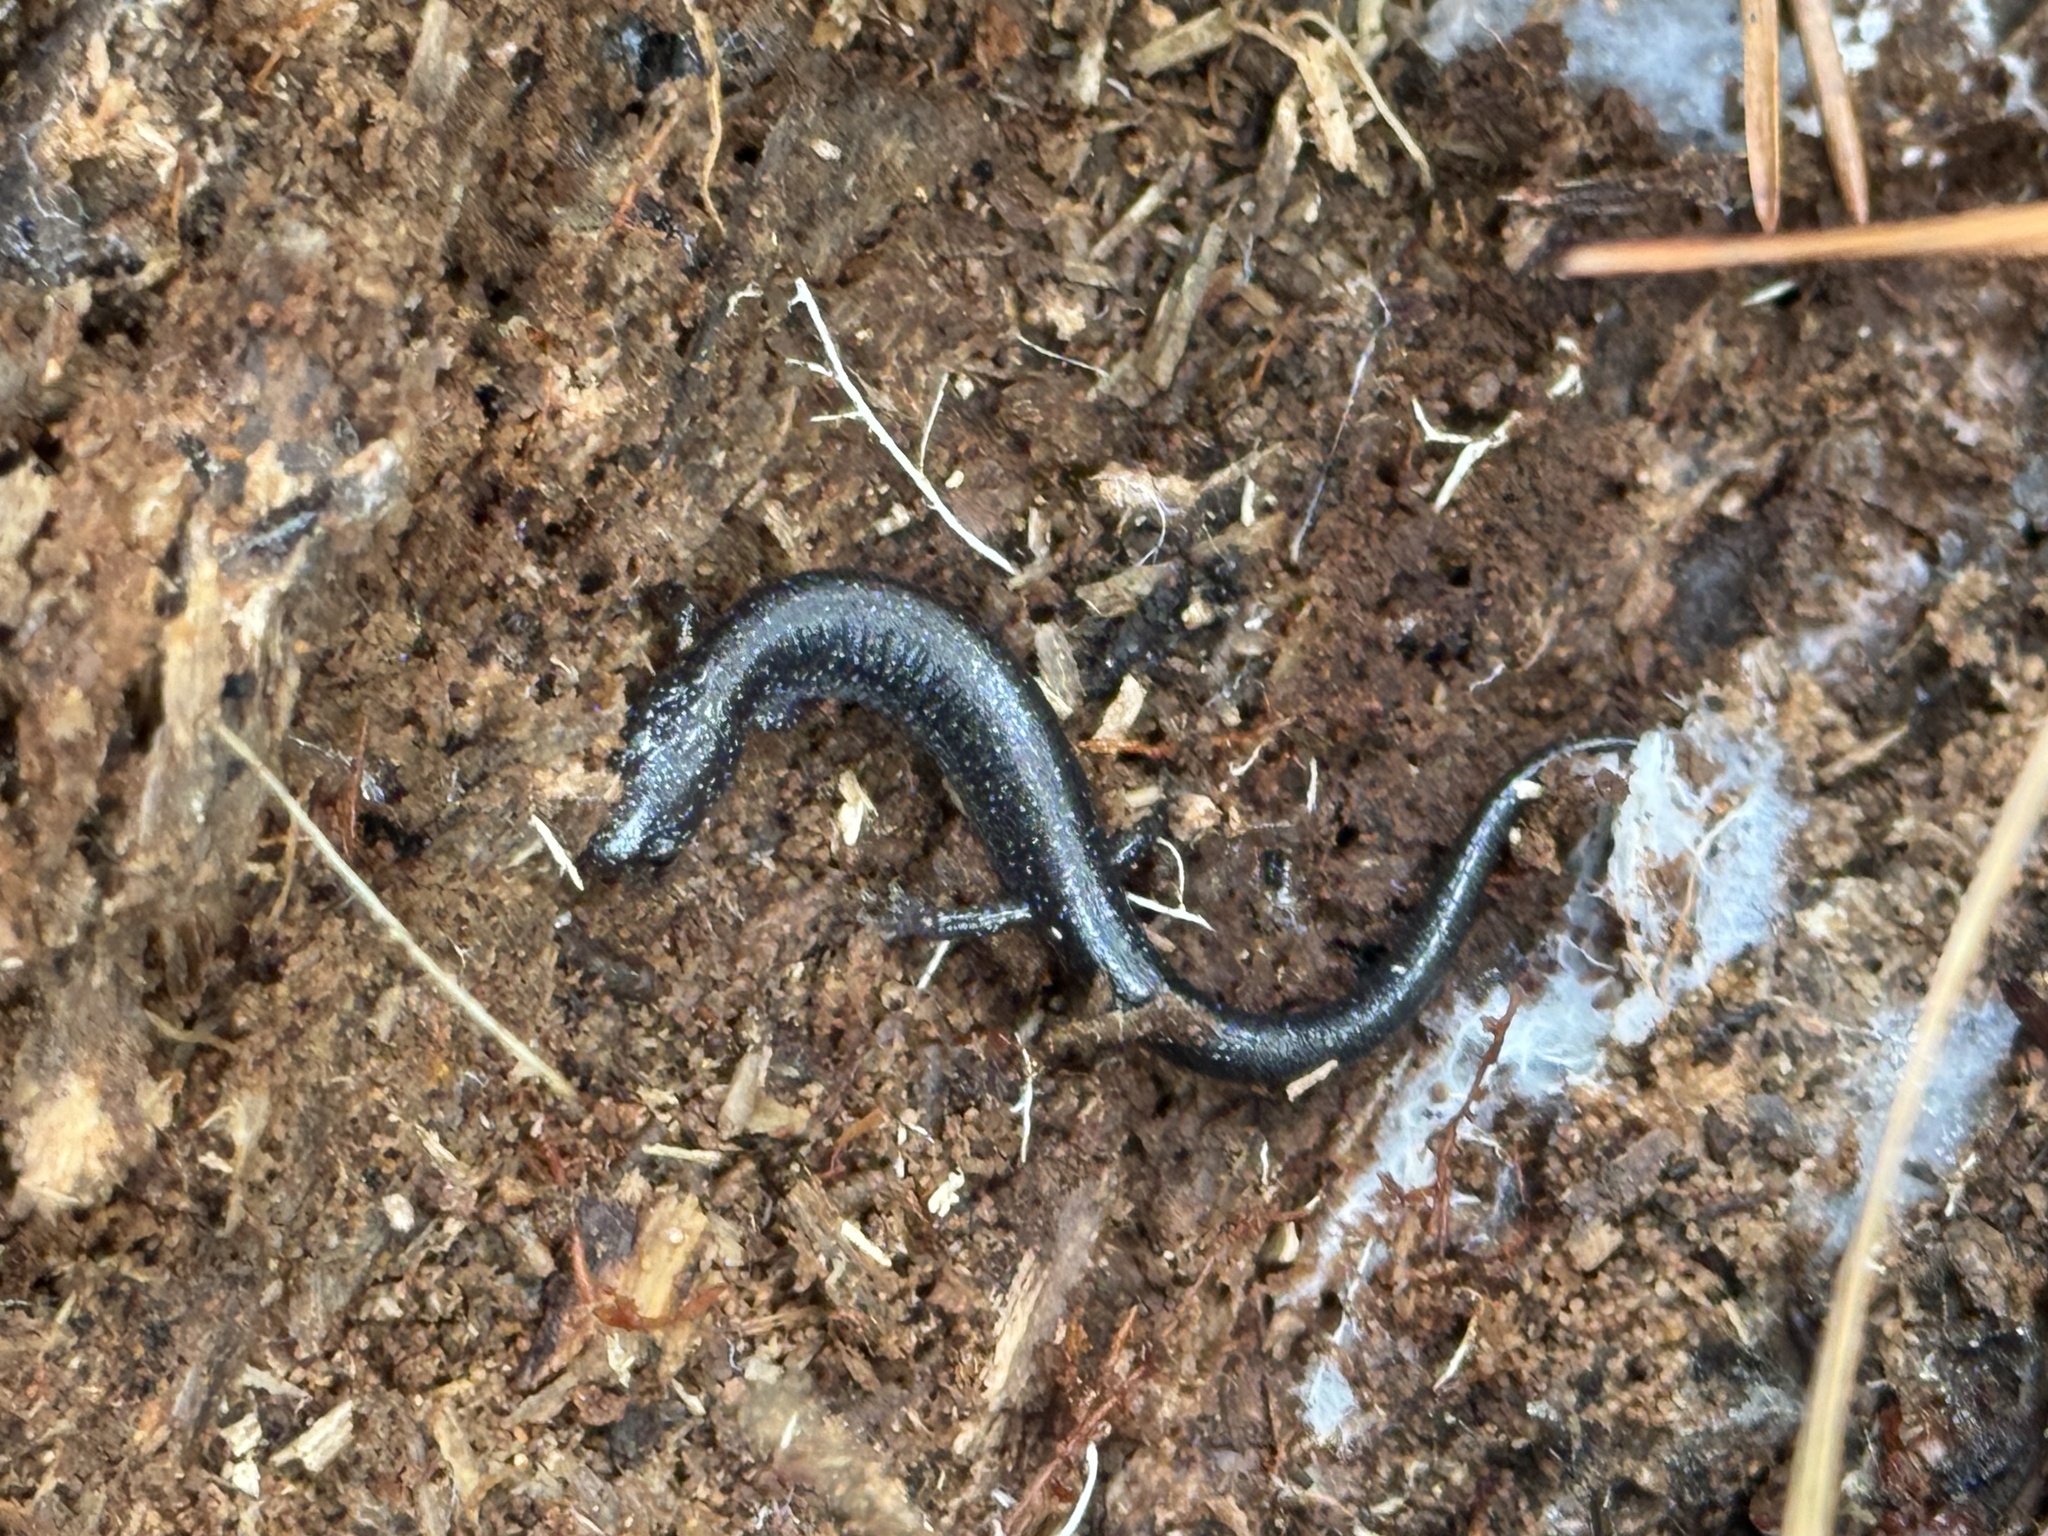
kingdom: Animalia
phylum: Chordata
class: Amphibia
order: Caudata
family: Plethodontidae
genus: Plethodon
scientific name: Plethodon cinereus
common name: Redback salamander
